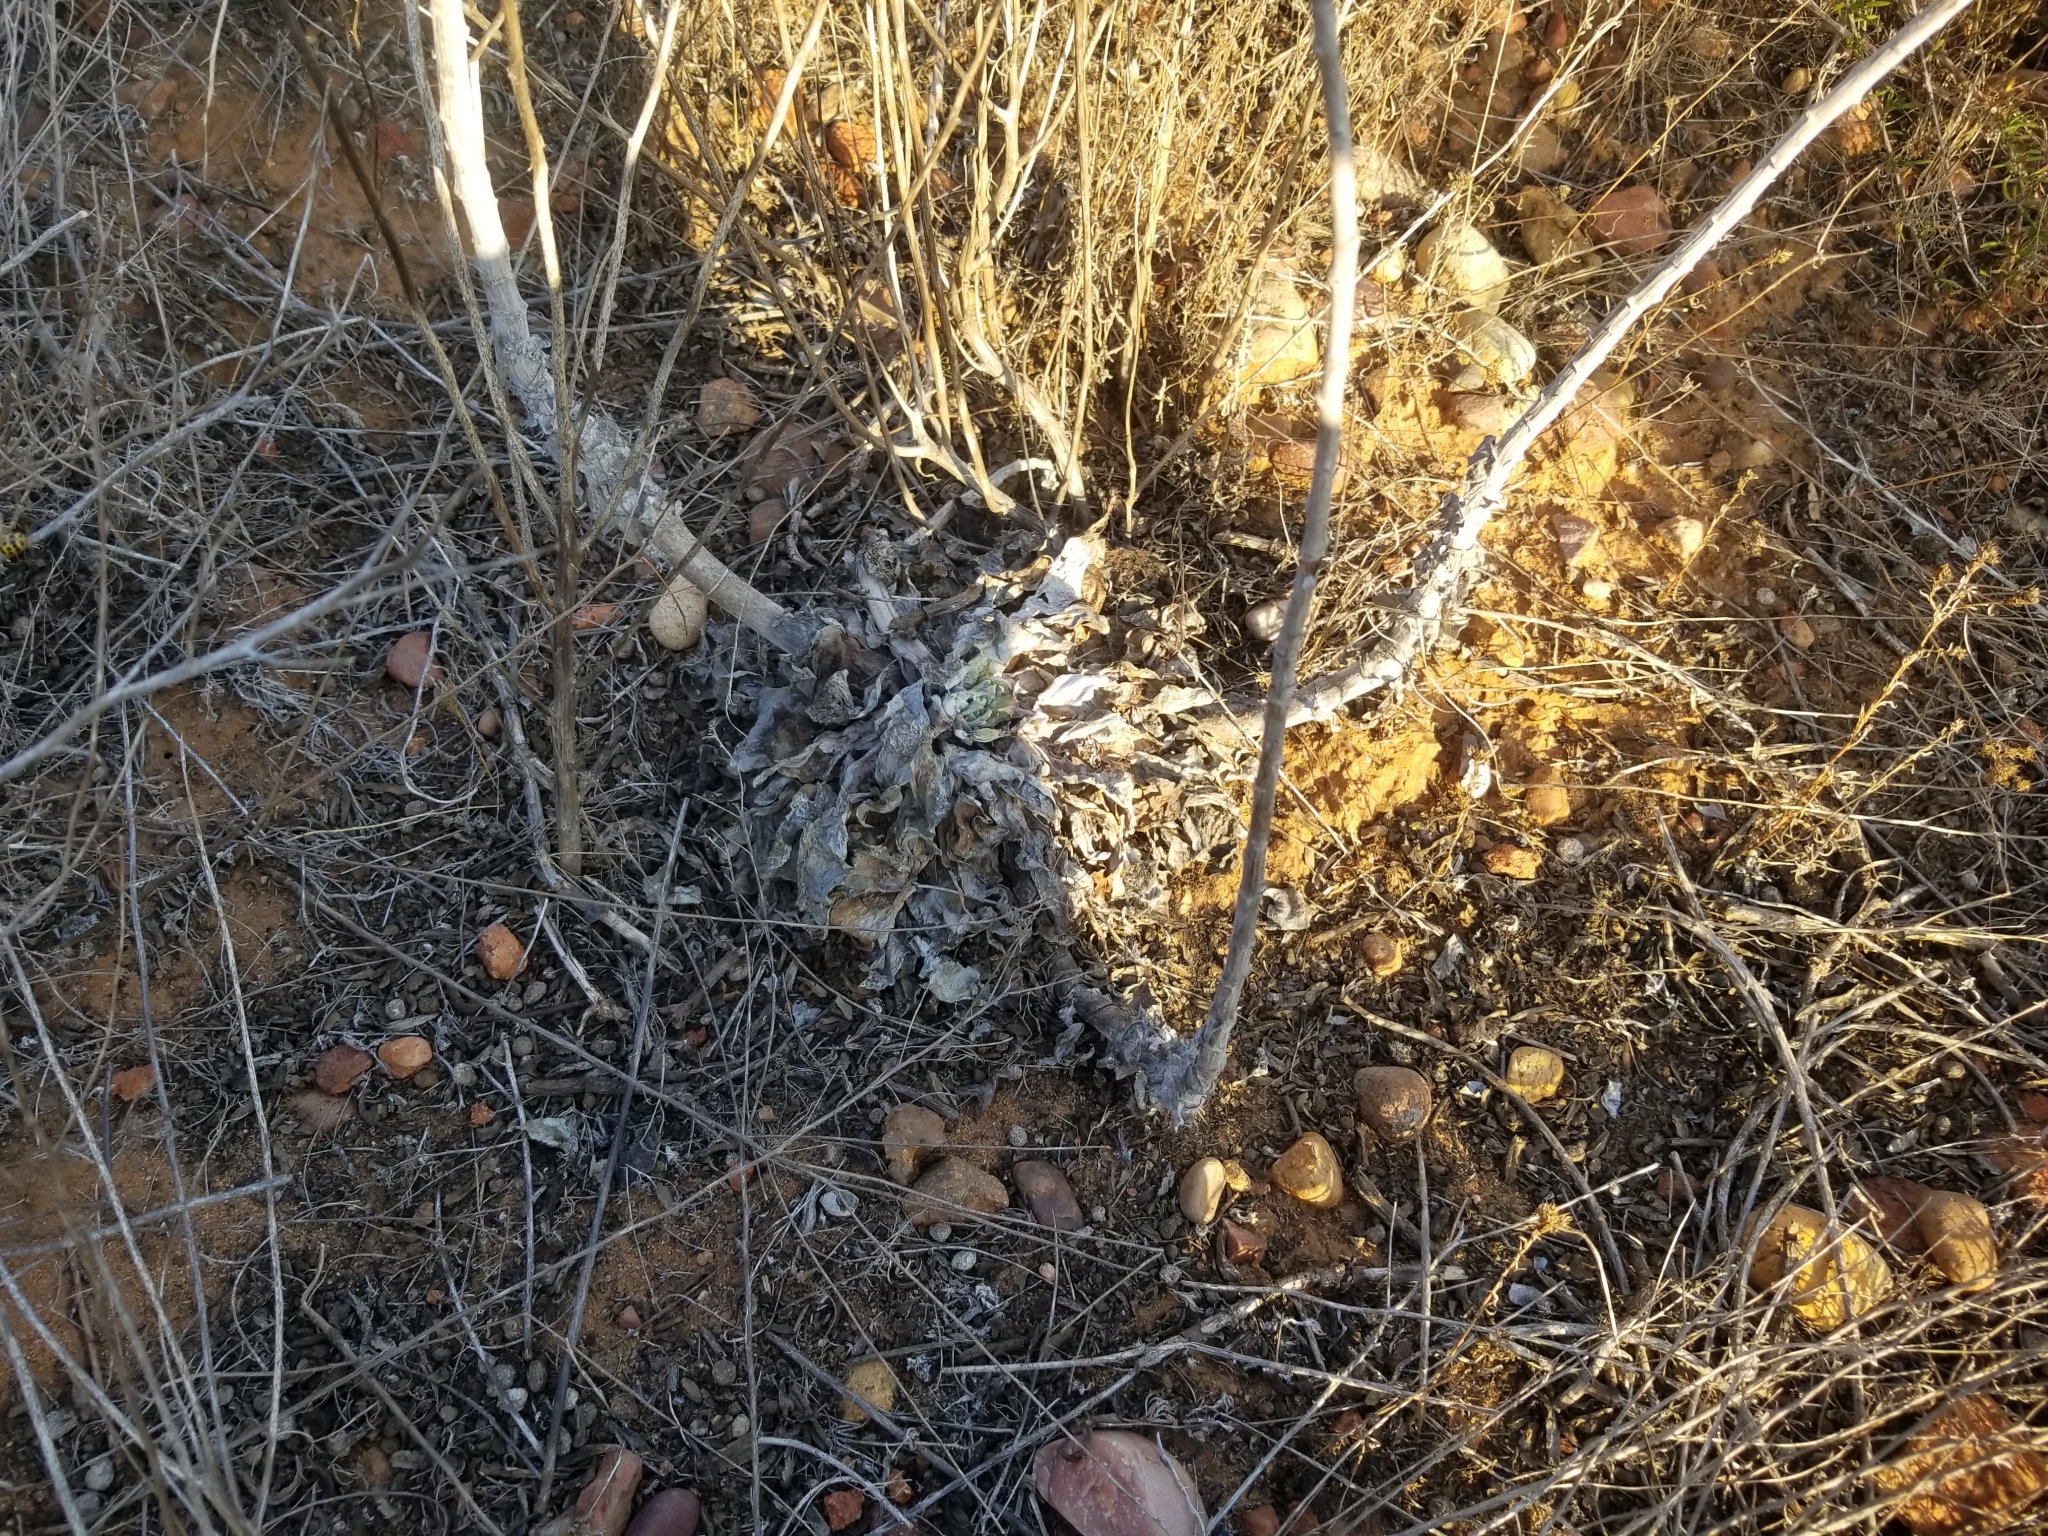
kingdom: Plantae
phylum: Tracheophyta
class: Magnoliopsida
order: Saxifragales
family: Crassulaceae
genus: Dudleya
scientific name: Dudleya pulverulenta
